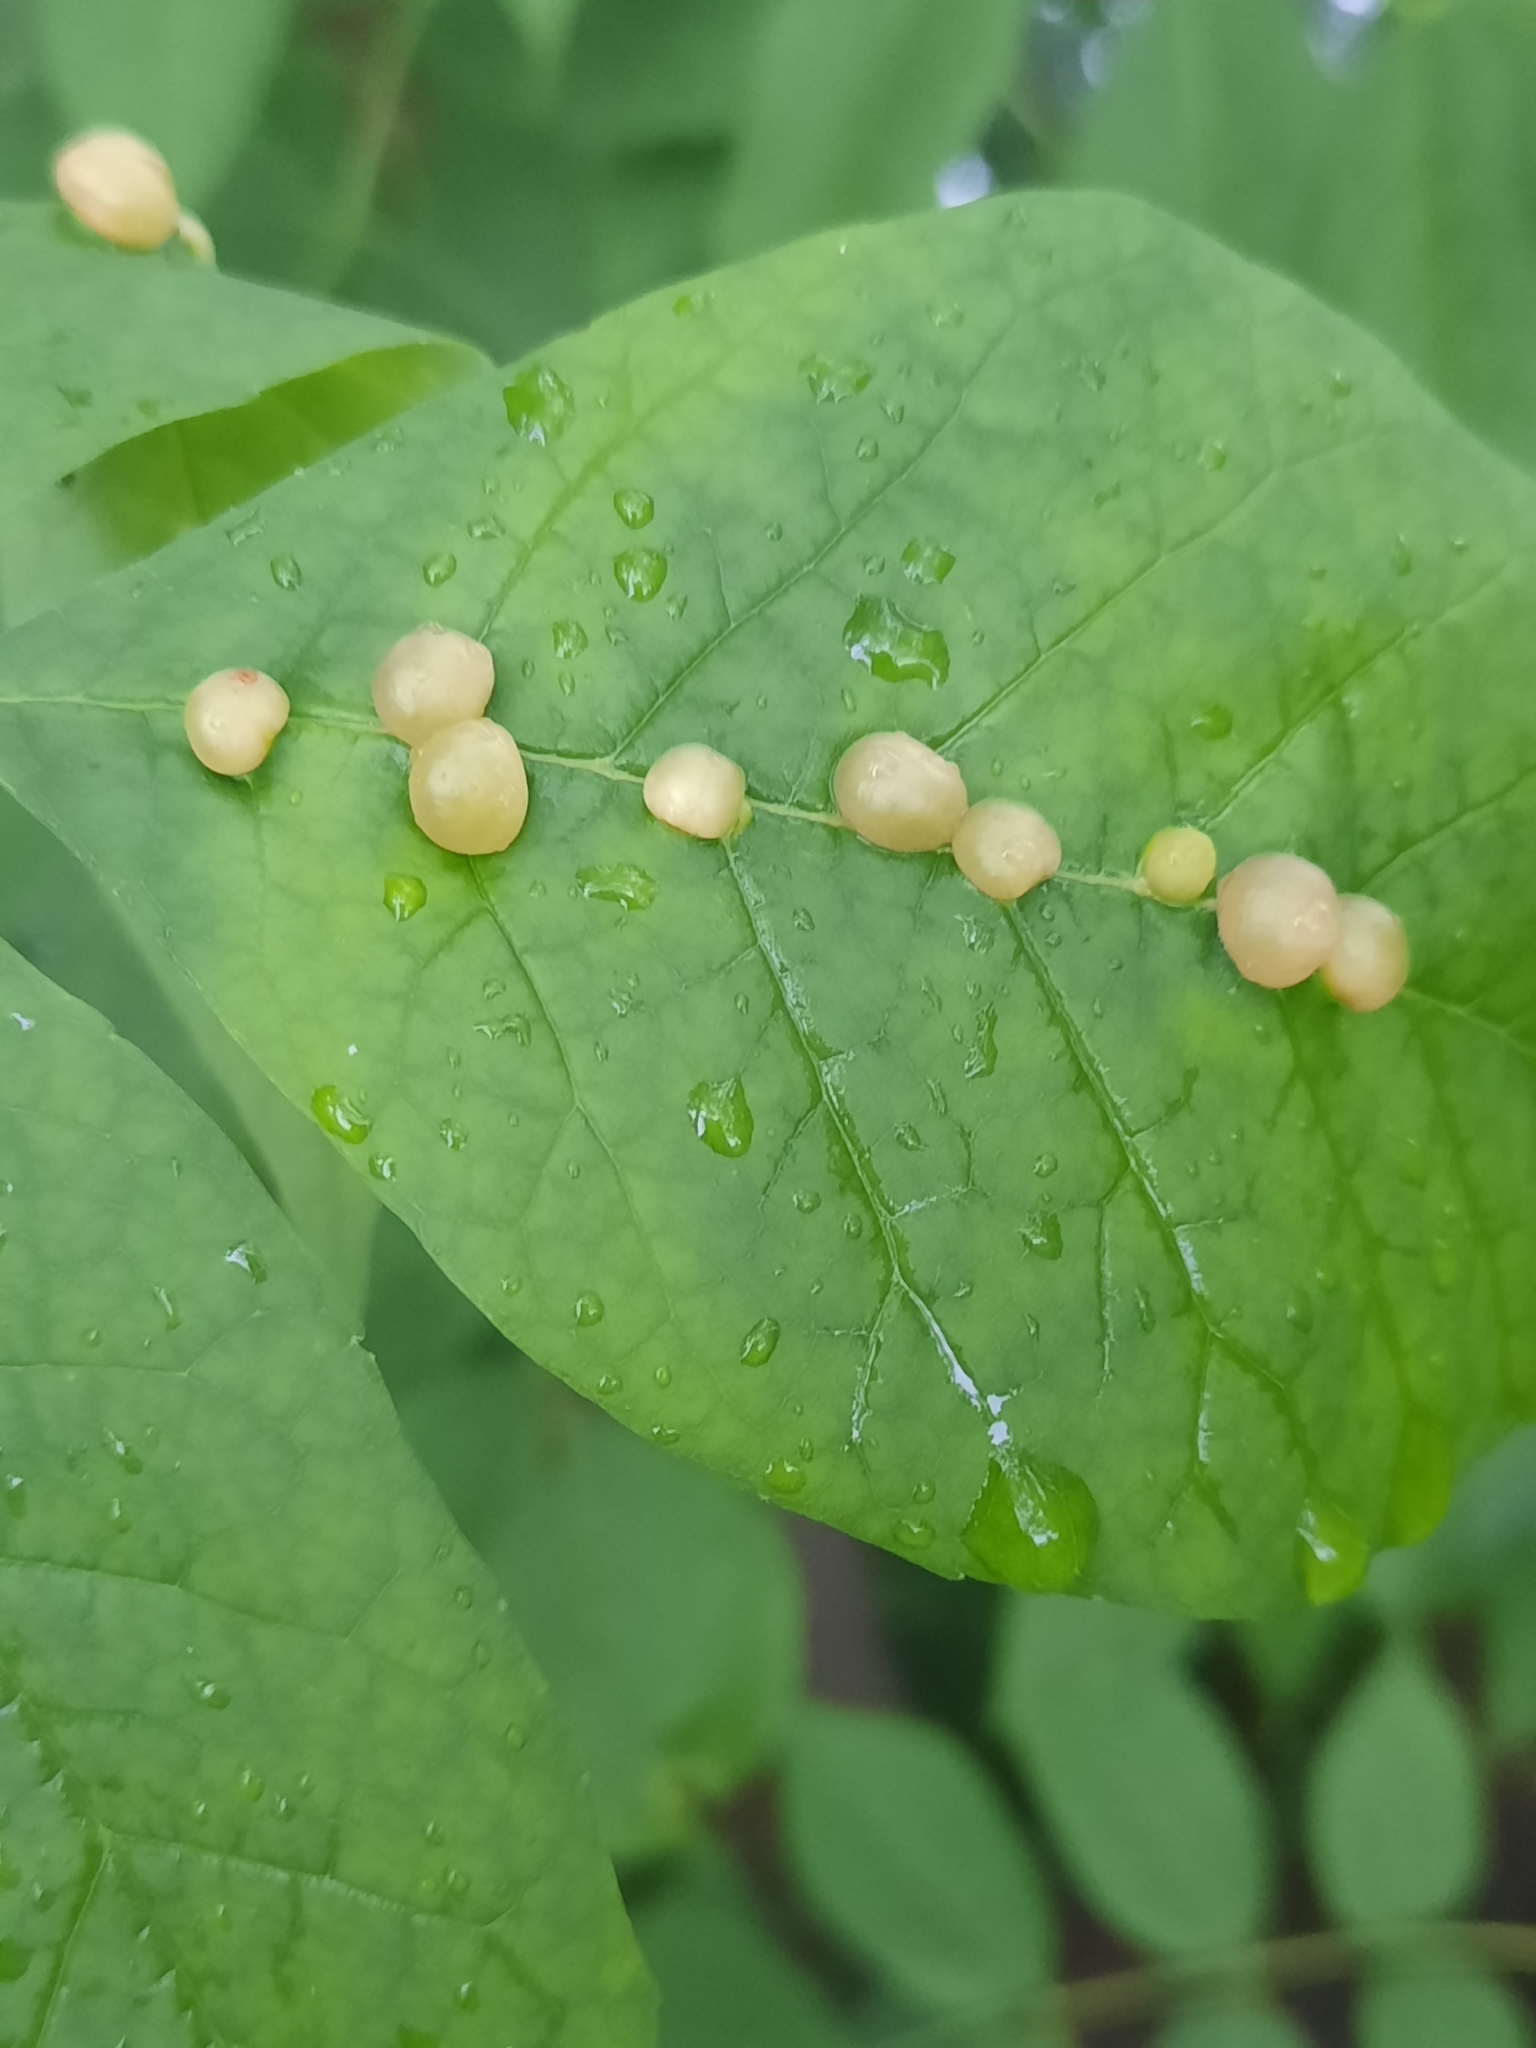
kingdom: Animalia
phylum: Arthropoda
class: Insecta
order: Diptera
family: Cecidomyiidae
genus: Dasineura
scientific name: Dasineura pellex
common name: Ash bullet gall midge
